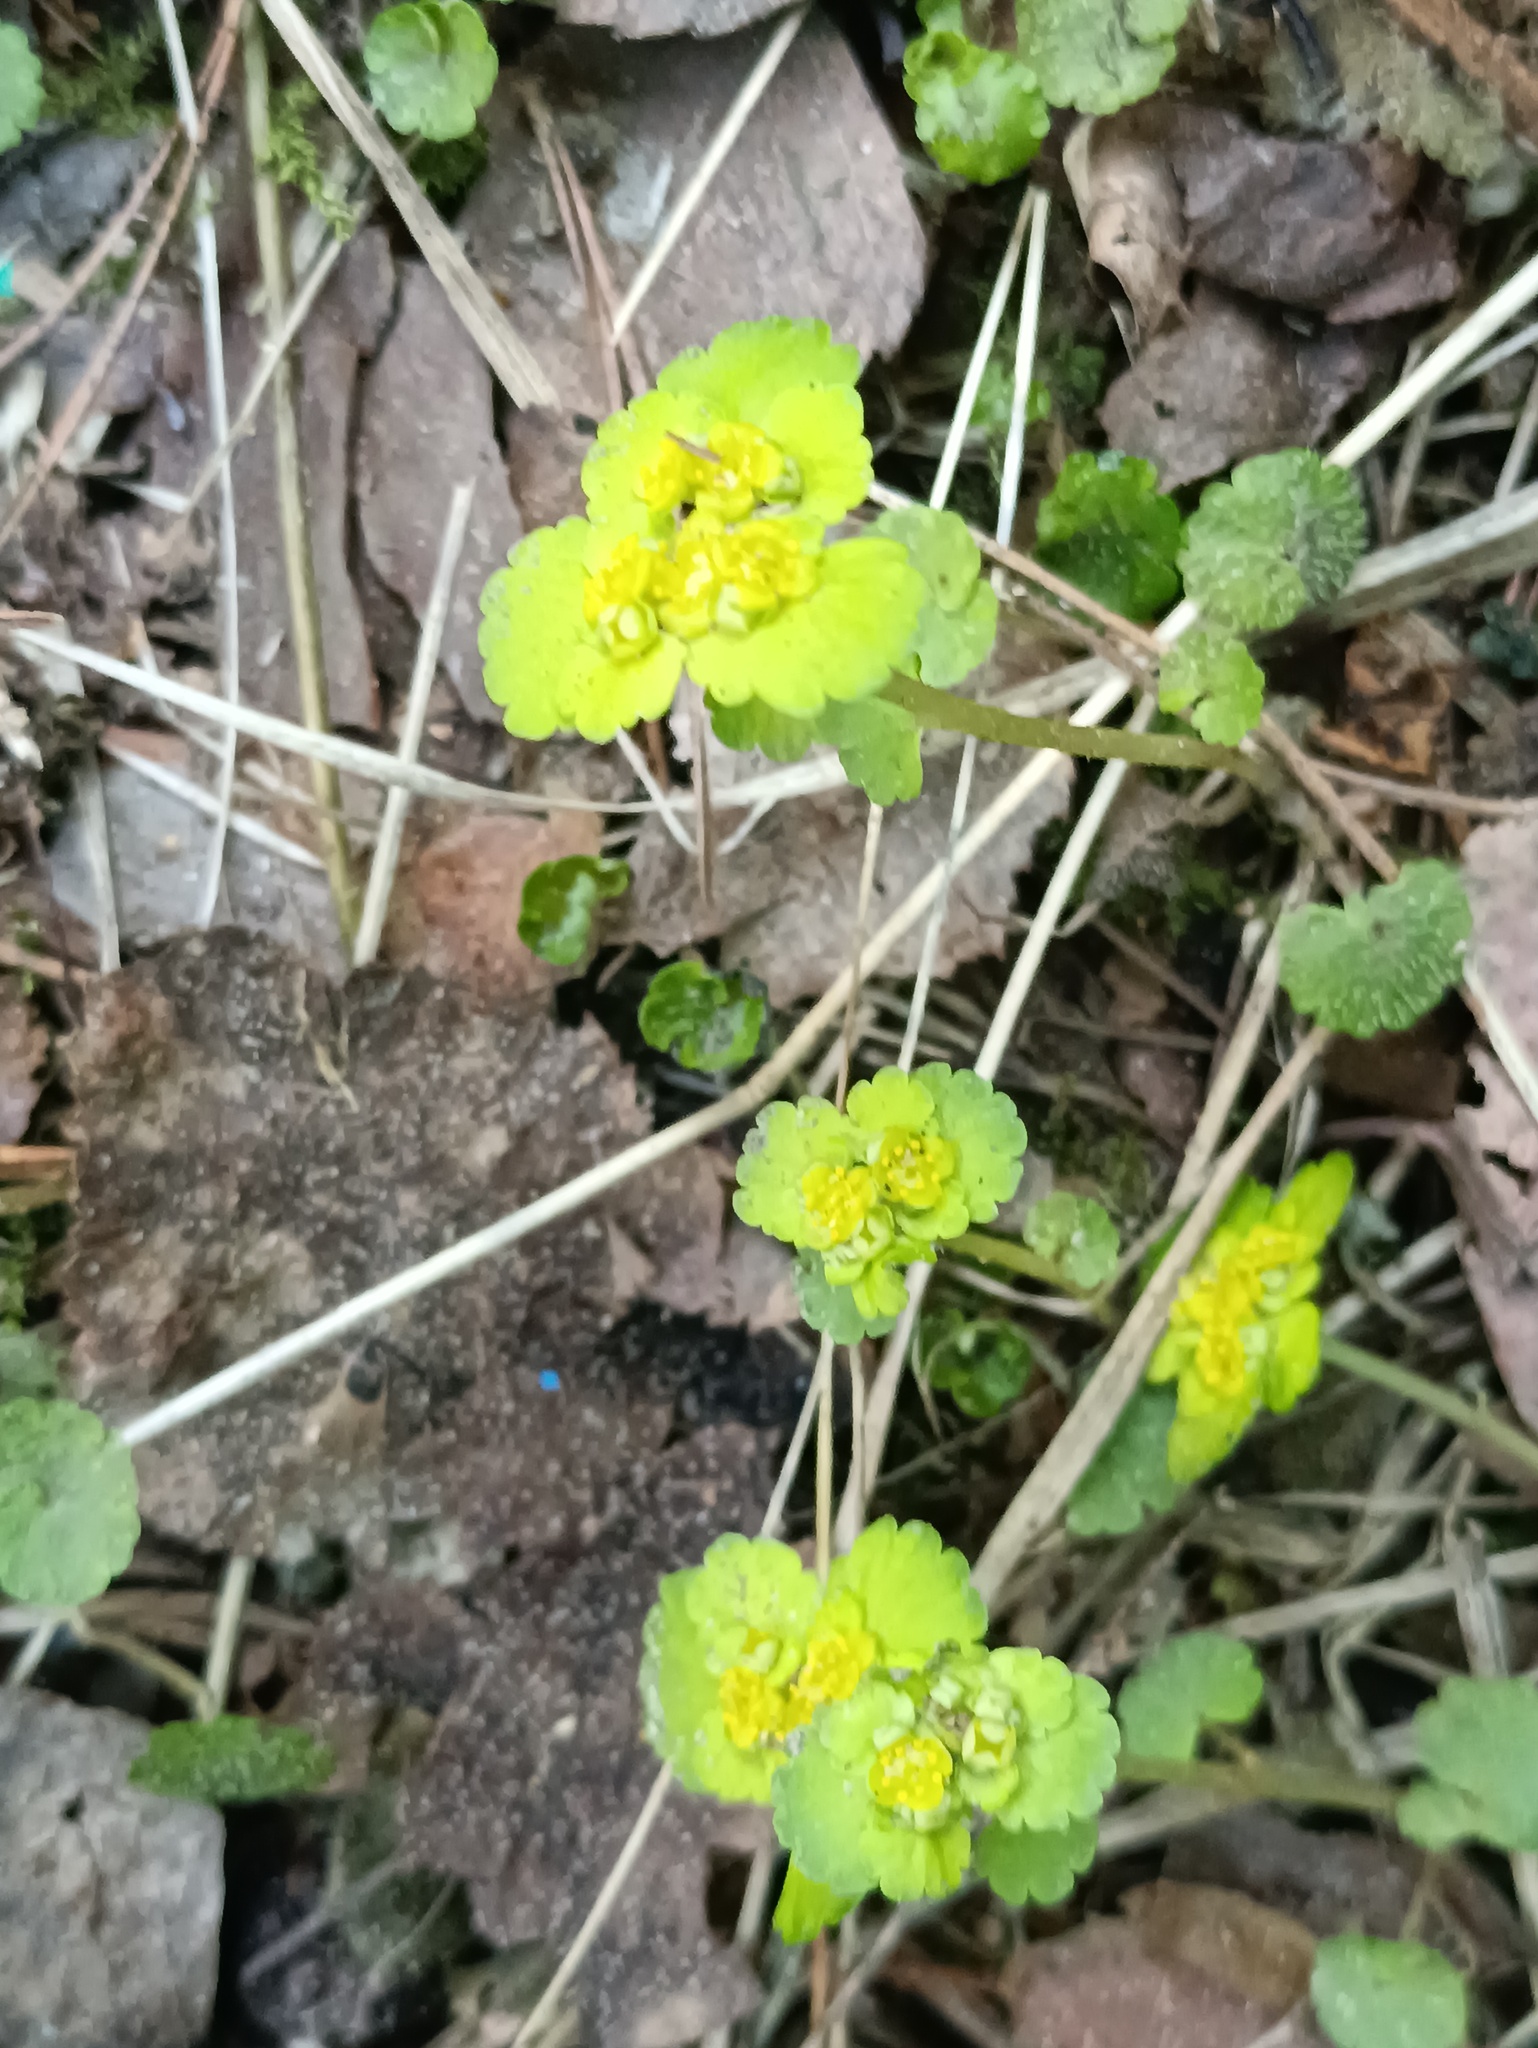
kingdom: Plantae
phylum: Tracheophyta
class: Magnoliopsida
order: Saxifragales
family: Saxifragaceae
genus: Chrysosplenium
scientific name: Chrysosplenium alternifolium
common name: Alternate-leaved golden-saxifrage
